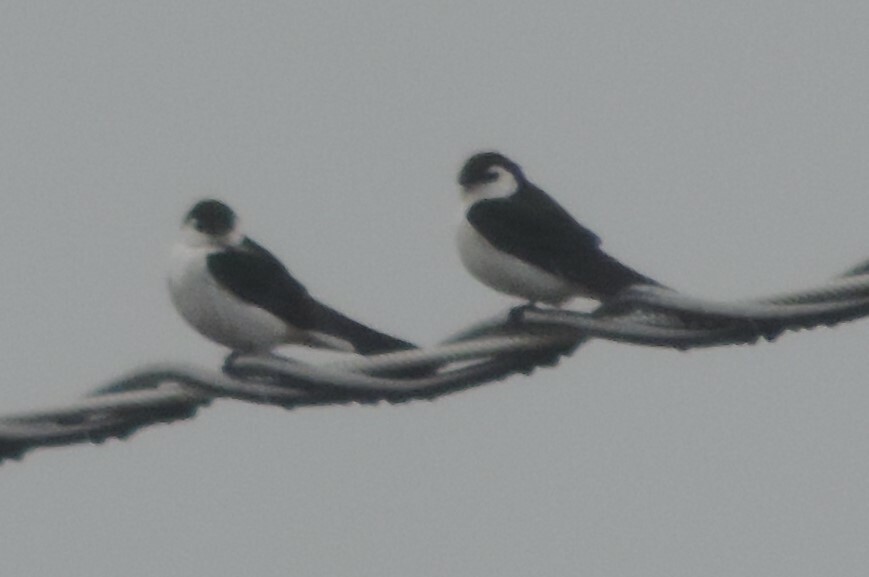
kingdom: Animalia
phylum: Chordata
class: Aves
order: Passeriformes
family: Hirundinidae
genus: Tachycineta
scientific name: Tachycineta thalassina
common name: Violet-green swallow
